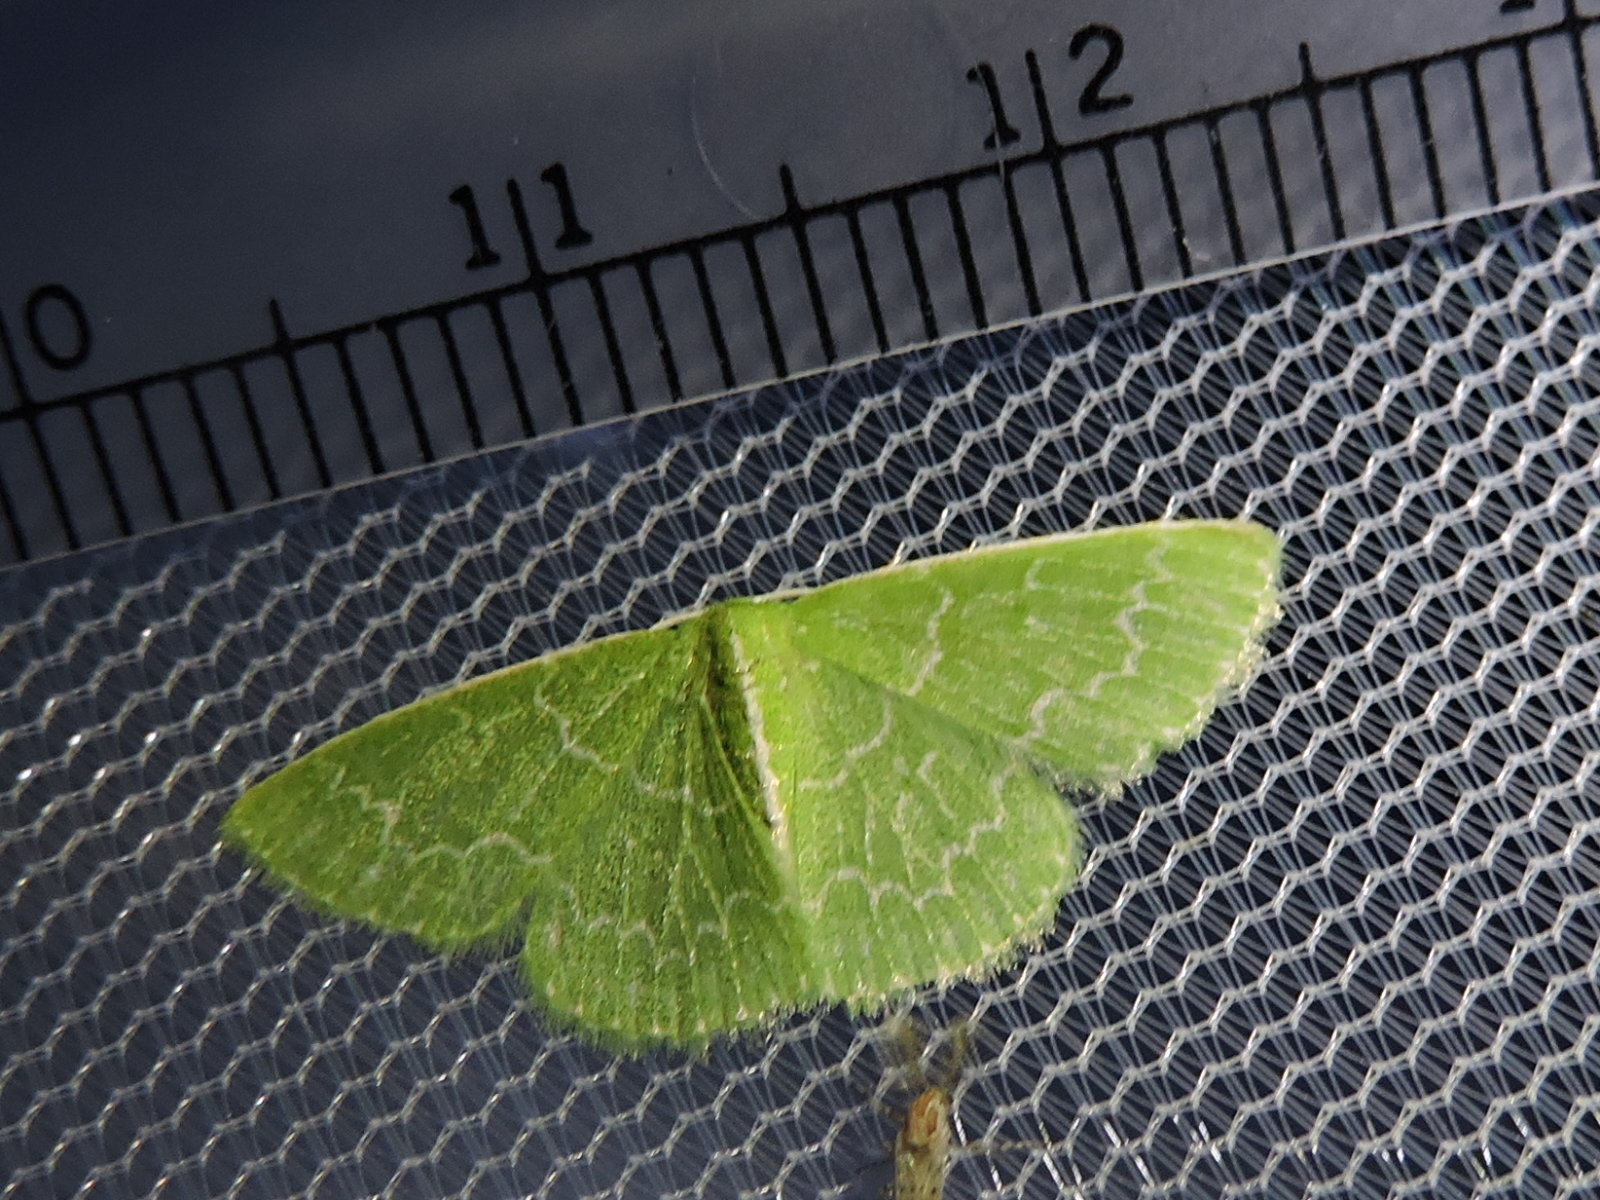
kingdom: Animalia
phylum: Arthropoda
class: Insecta
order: Lepidoptera
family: Geometridae
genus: Synchlora
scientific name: Synchlora frondaria
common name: Southern emerald
